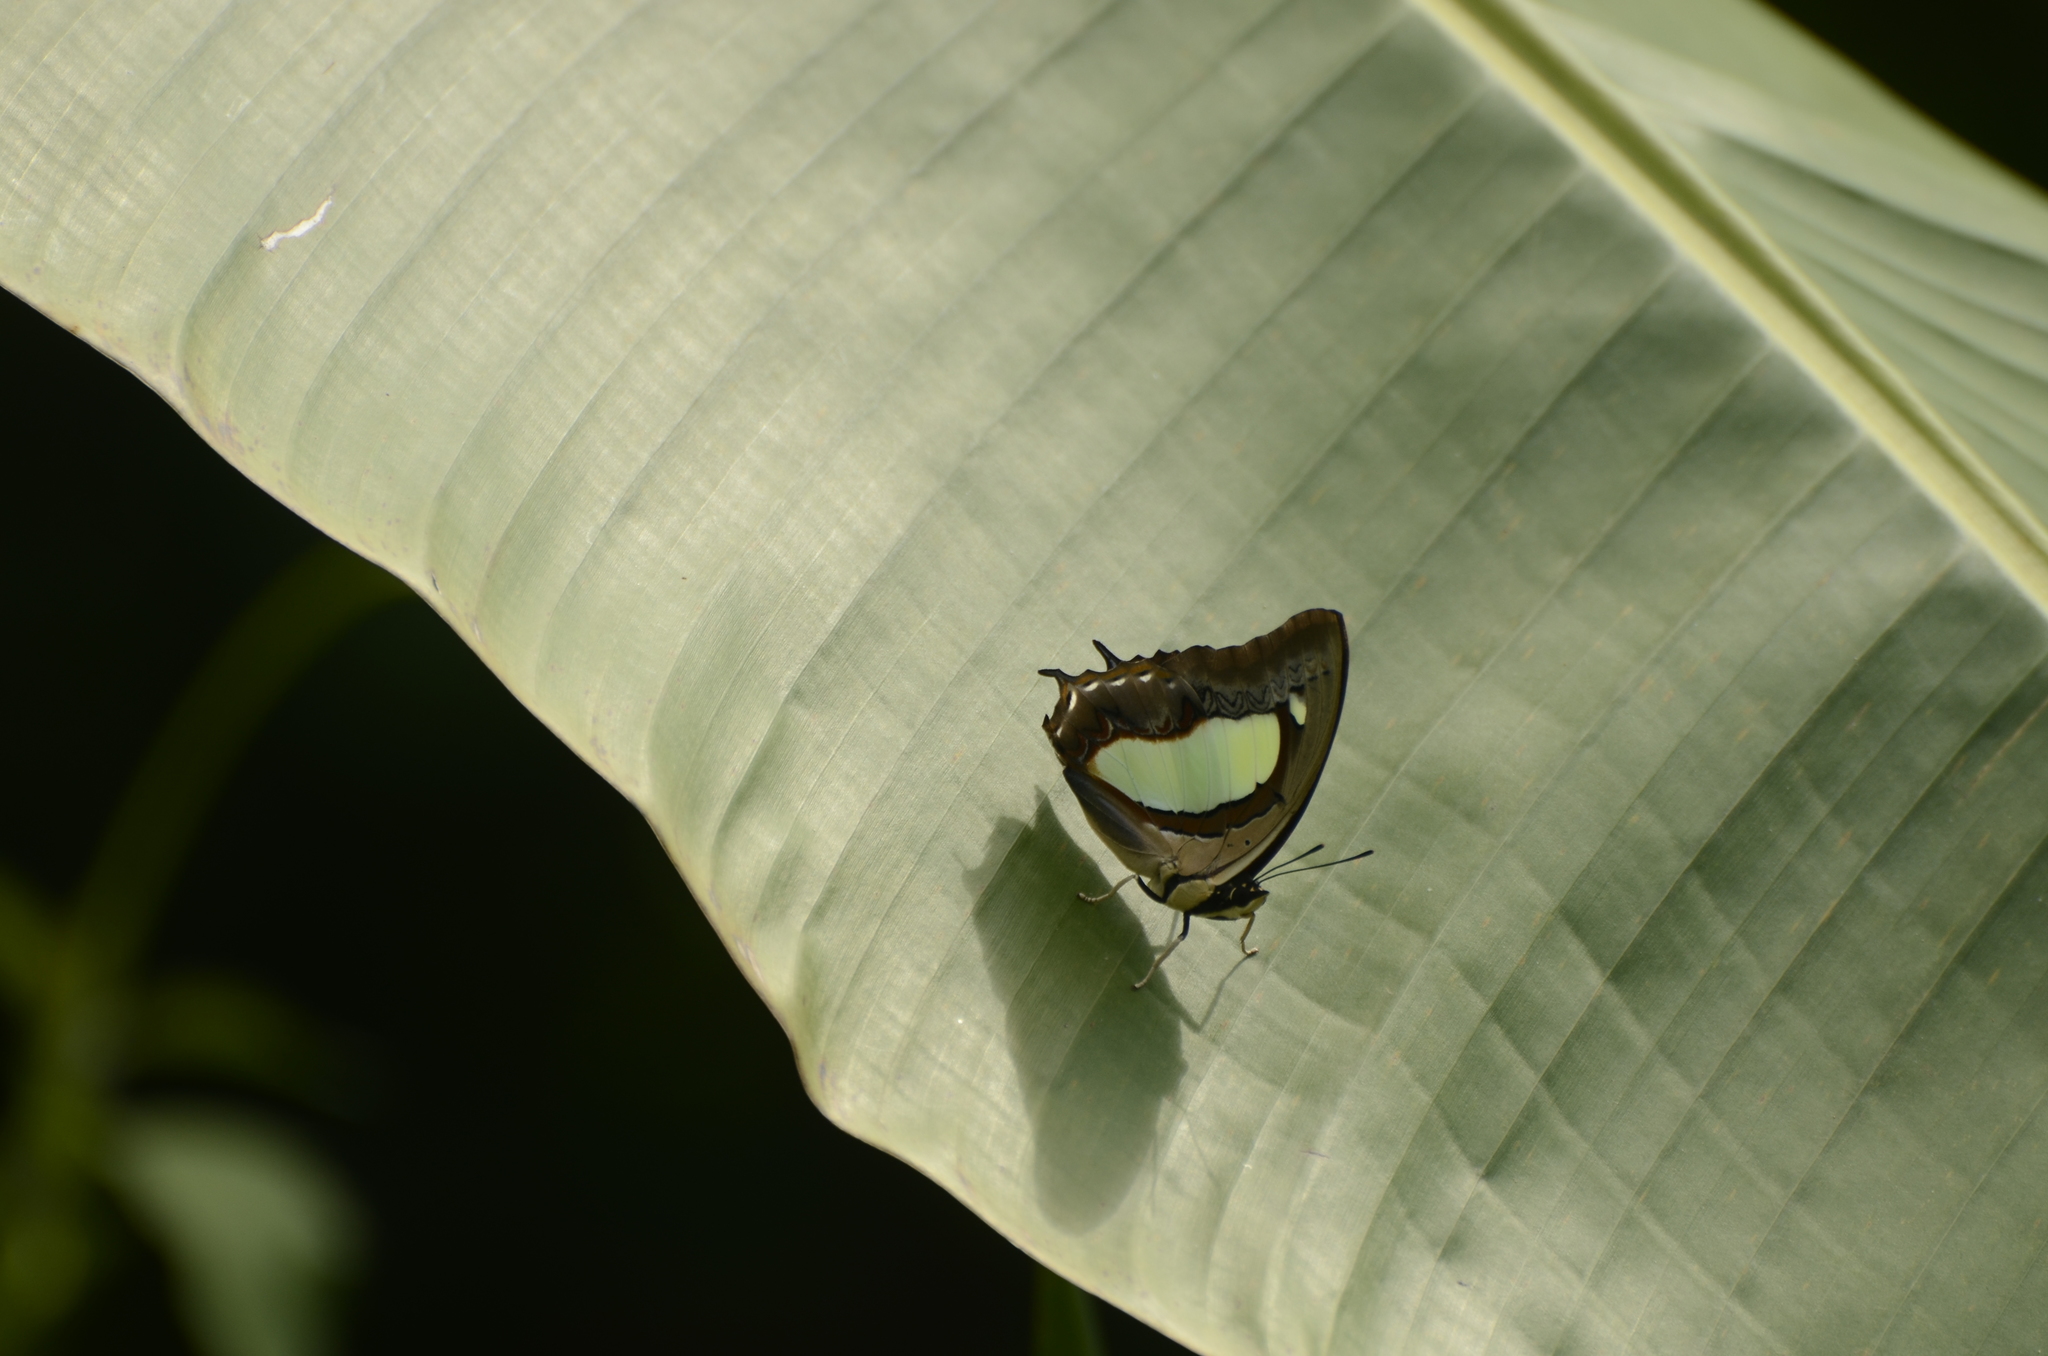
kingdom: Animalia
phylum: Arthropoda
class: Insecta
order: Lepidoptera
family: Nymphalidae
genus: Polyura
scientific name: Polyura athamas
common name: Common nawab
